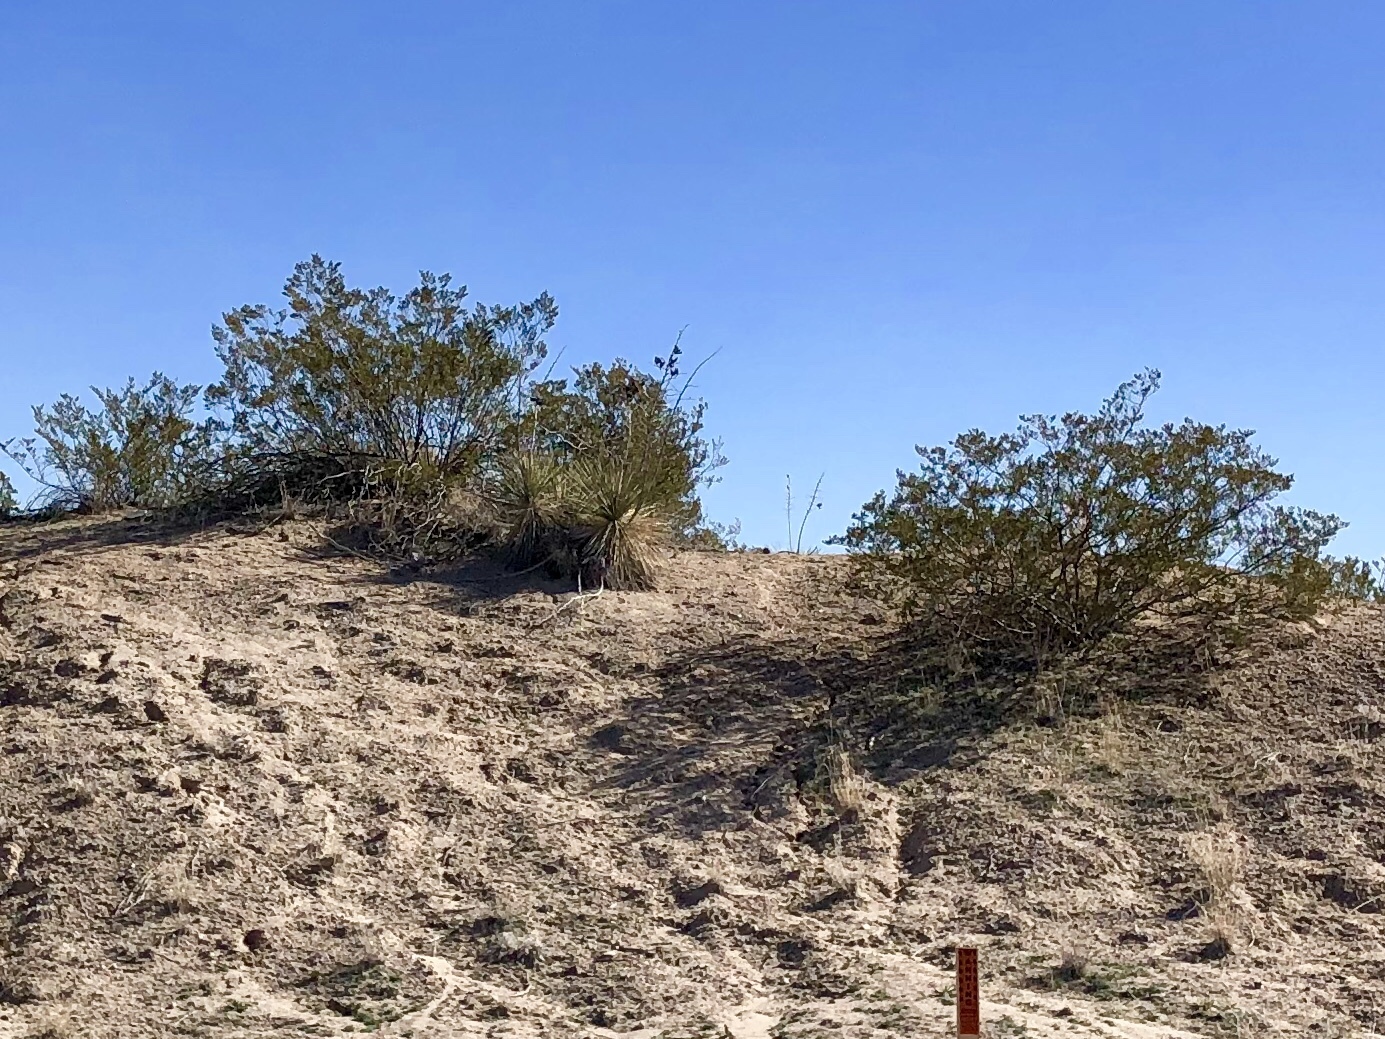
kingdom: Plantae
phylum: Tracheophyta
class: Magnoliopsida
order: Zygophyllales
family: Zygophyllaceae
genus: Larrea
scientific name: Larrea tridentata
